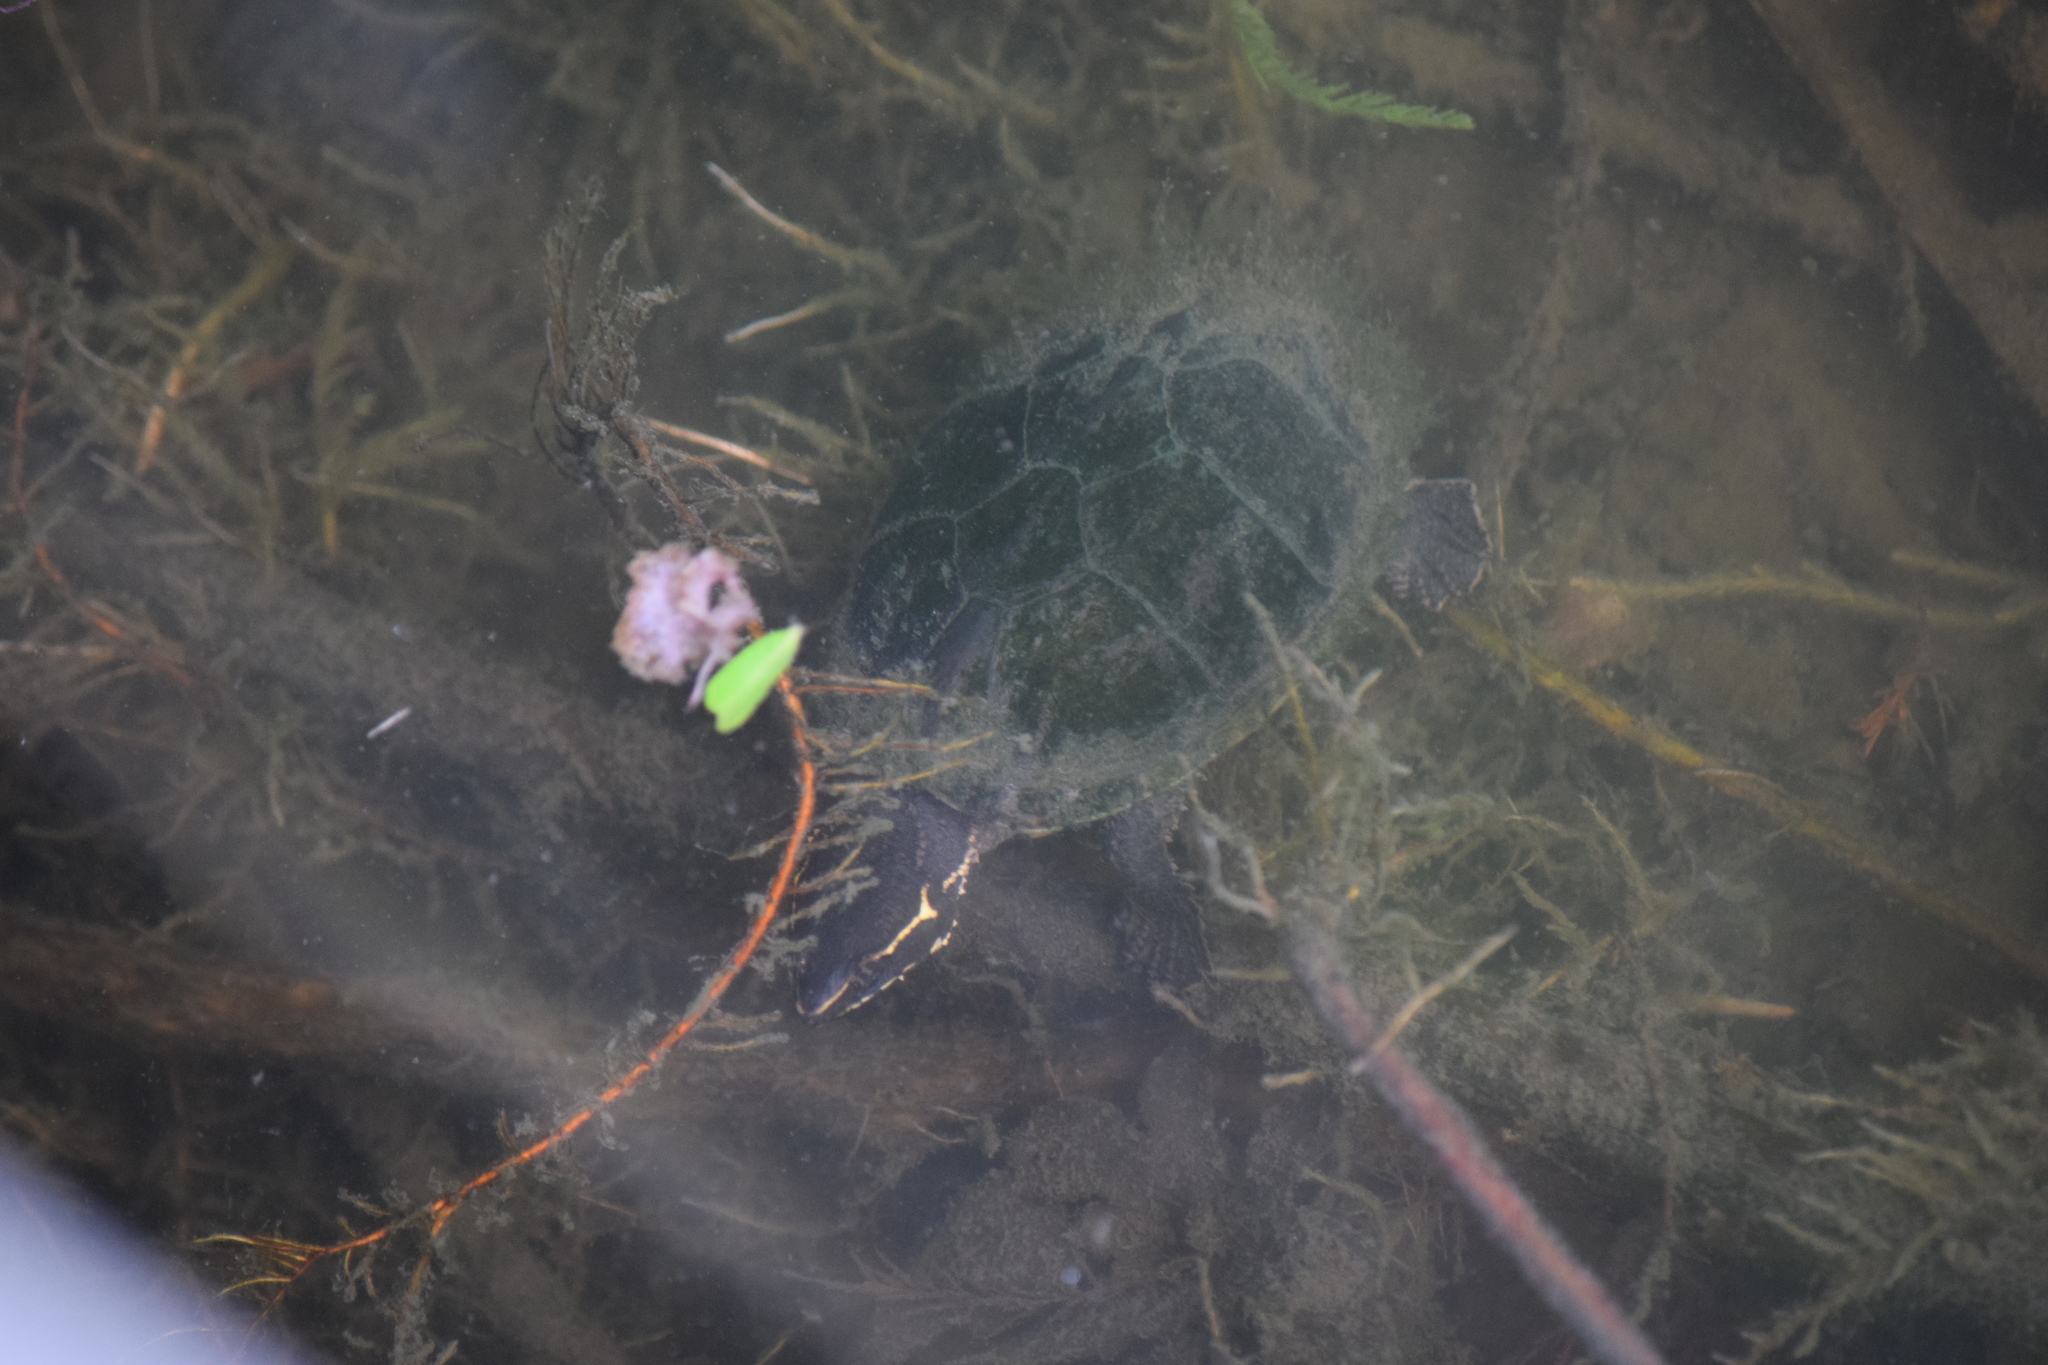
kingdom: Animalia
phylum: Chordata
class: Testudines
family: Kinosternidae
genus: Sternotherus
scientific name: Sternotherus odoratus
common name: Common musk turtle
